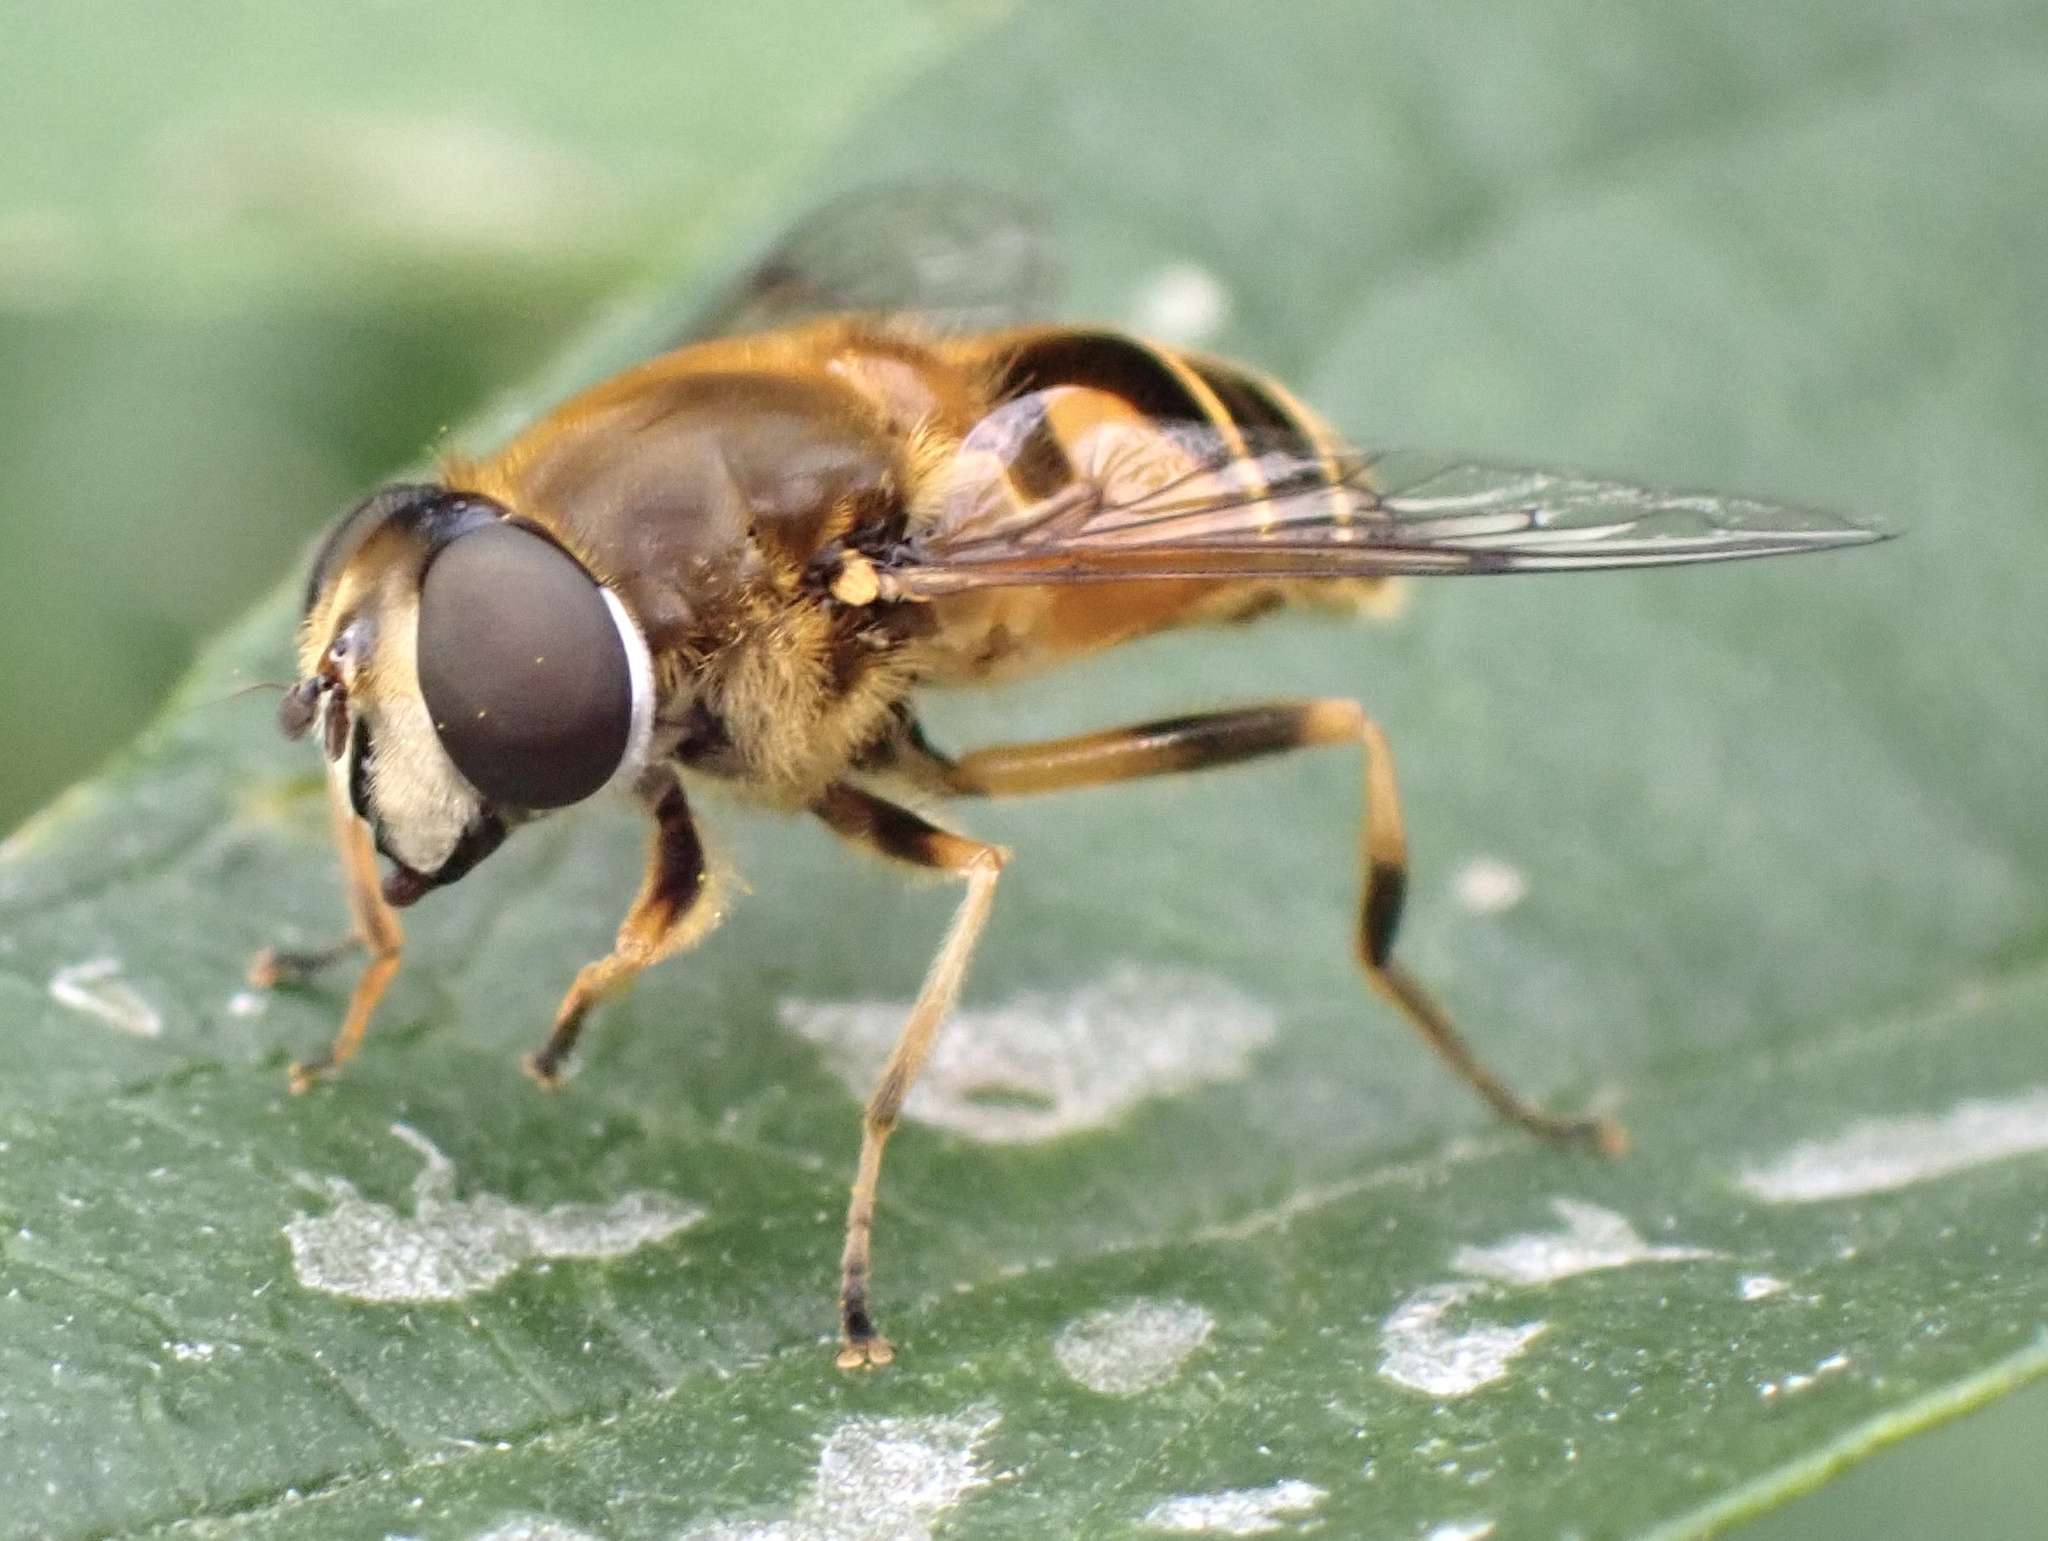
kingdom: Animalia
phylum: Arthropoda
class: Insecta
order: Diptera
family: Syrphidae
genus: Cheilosia
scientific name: Cheilosia morio
